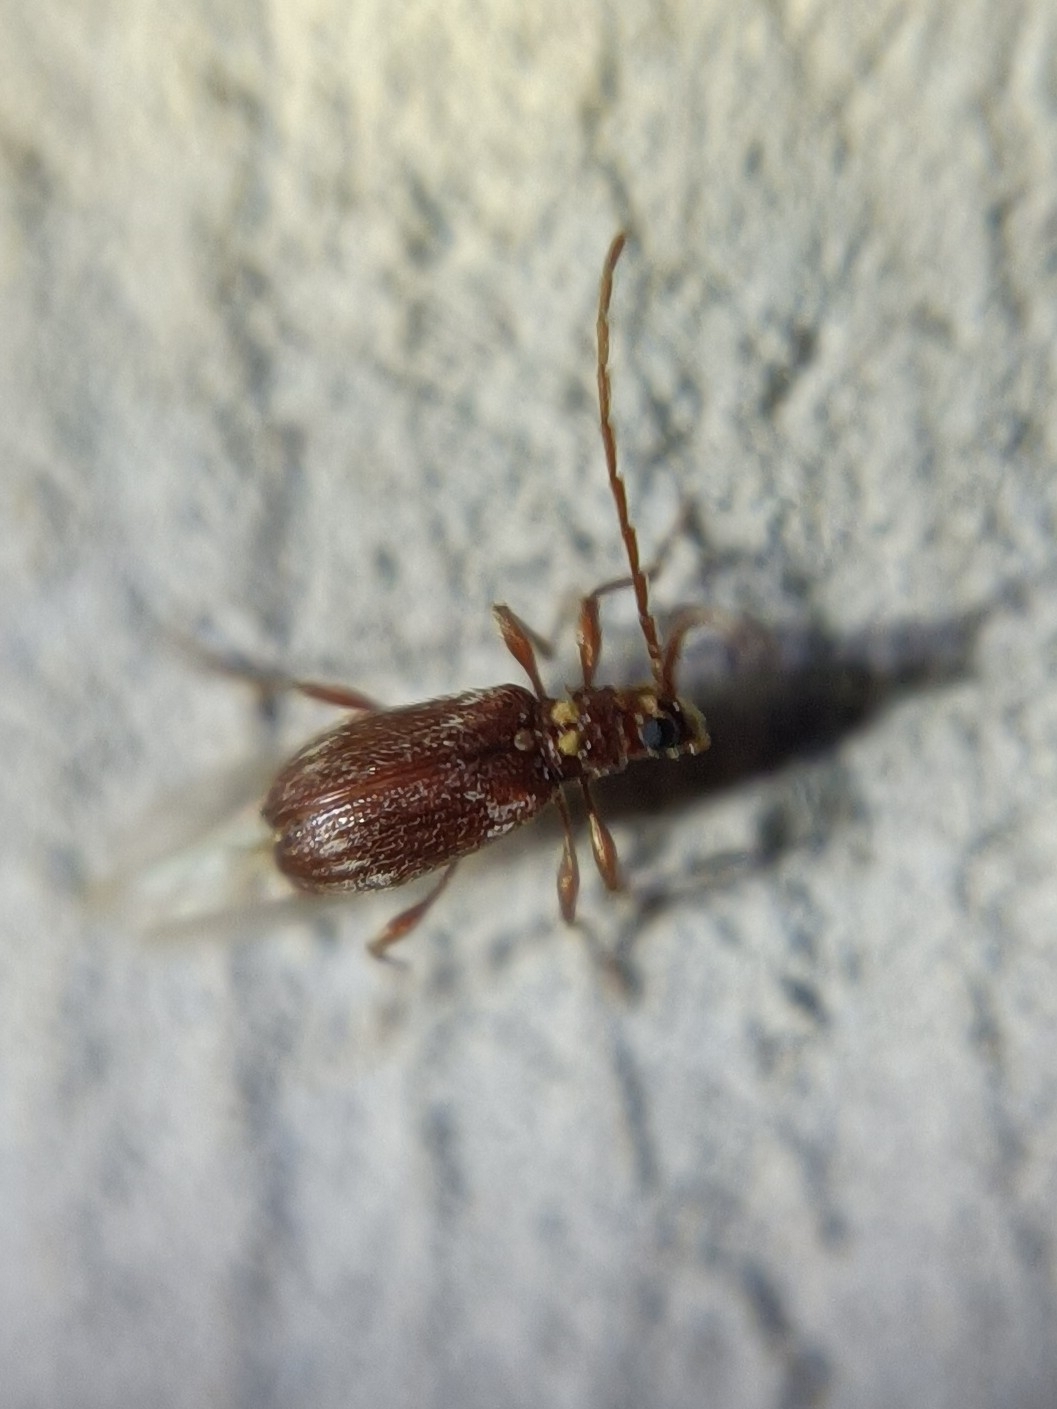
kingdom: Animalia
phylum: Arthropoda
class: Insecta
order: Coleoptera
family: Ptinidae
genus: Ptinus
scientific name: Ptinus raptor
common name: Eastern spider beetle
